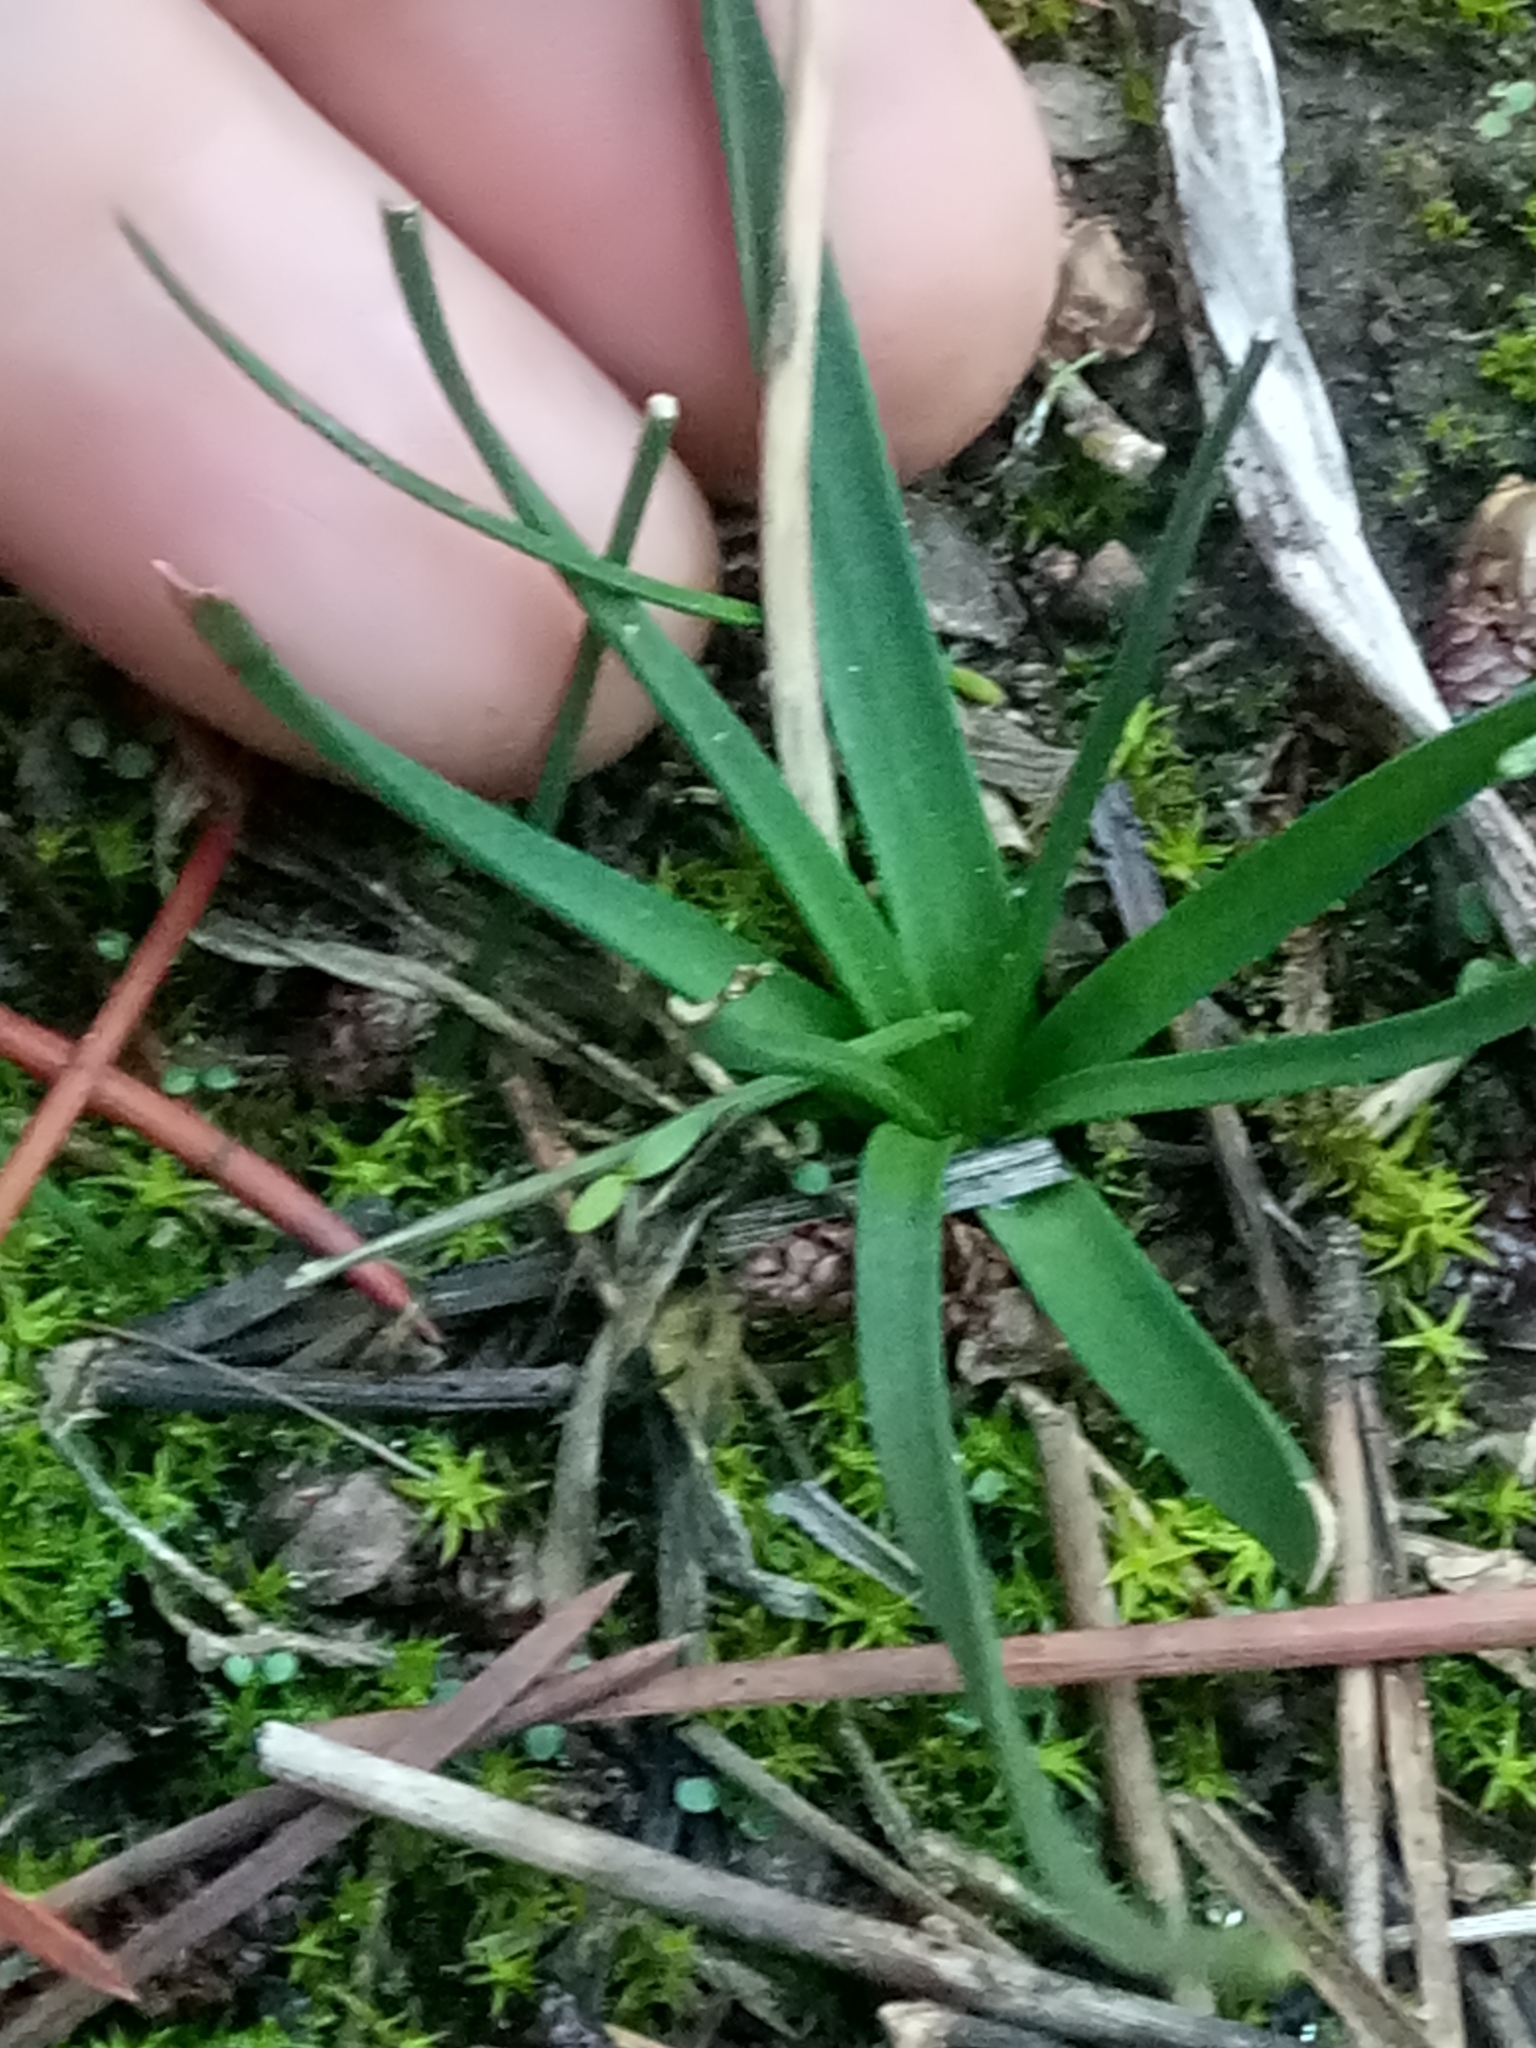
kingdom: Plantae
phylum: Tracheophyta
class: Liliopsida
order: Asparagales
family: Asparagaceae
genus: Prospero
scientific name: Prospero fallax
